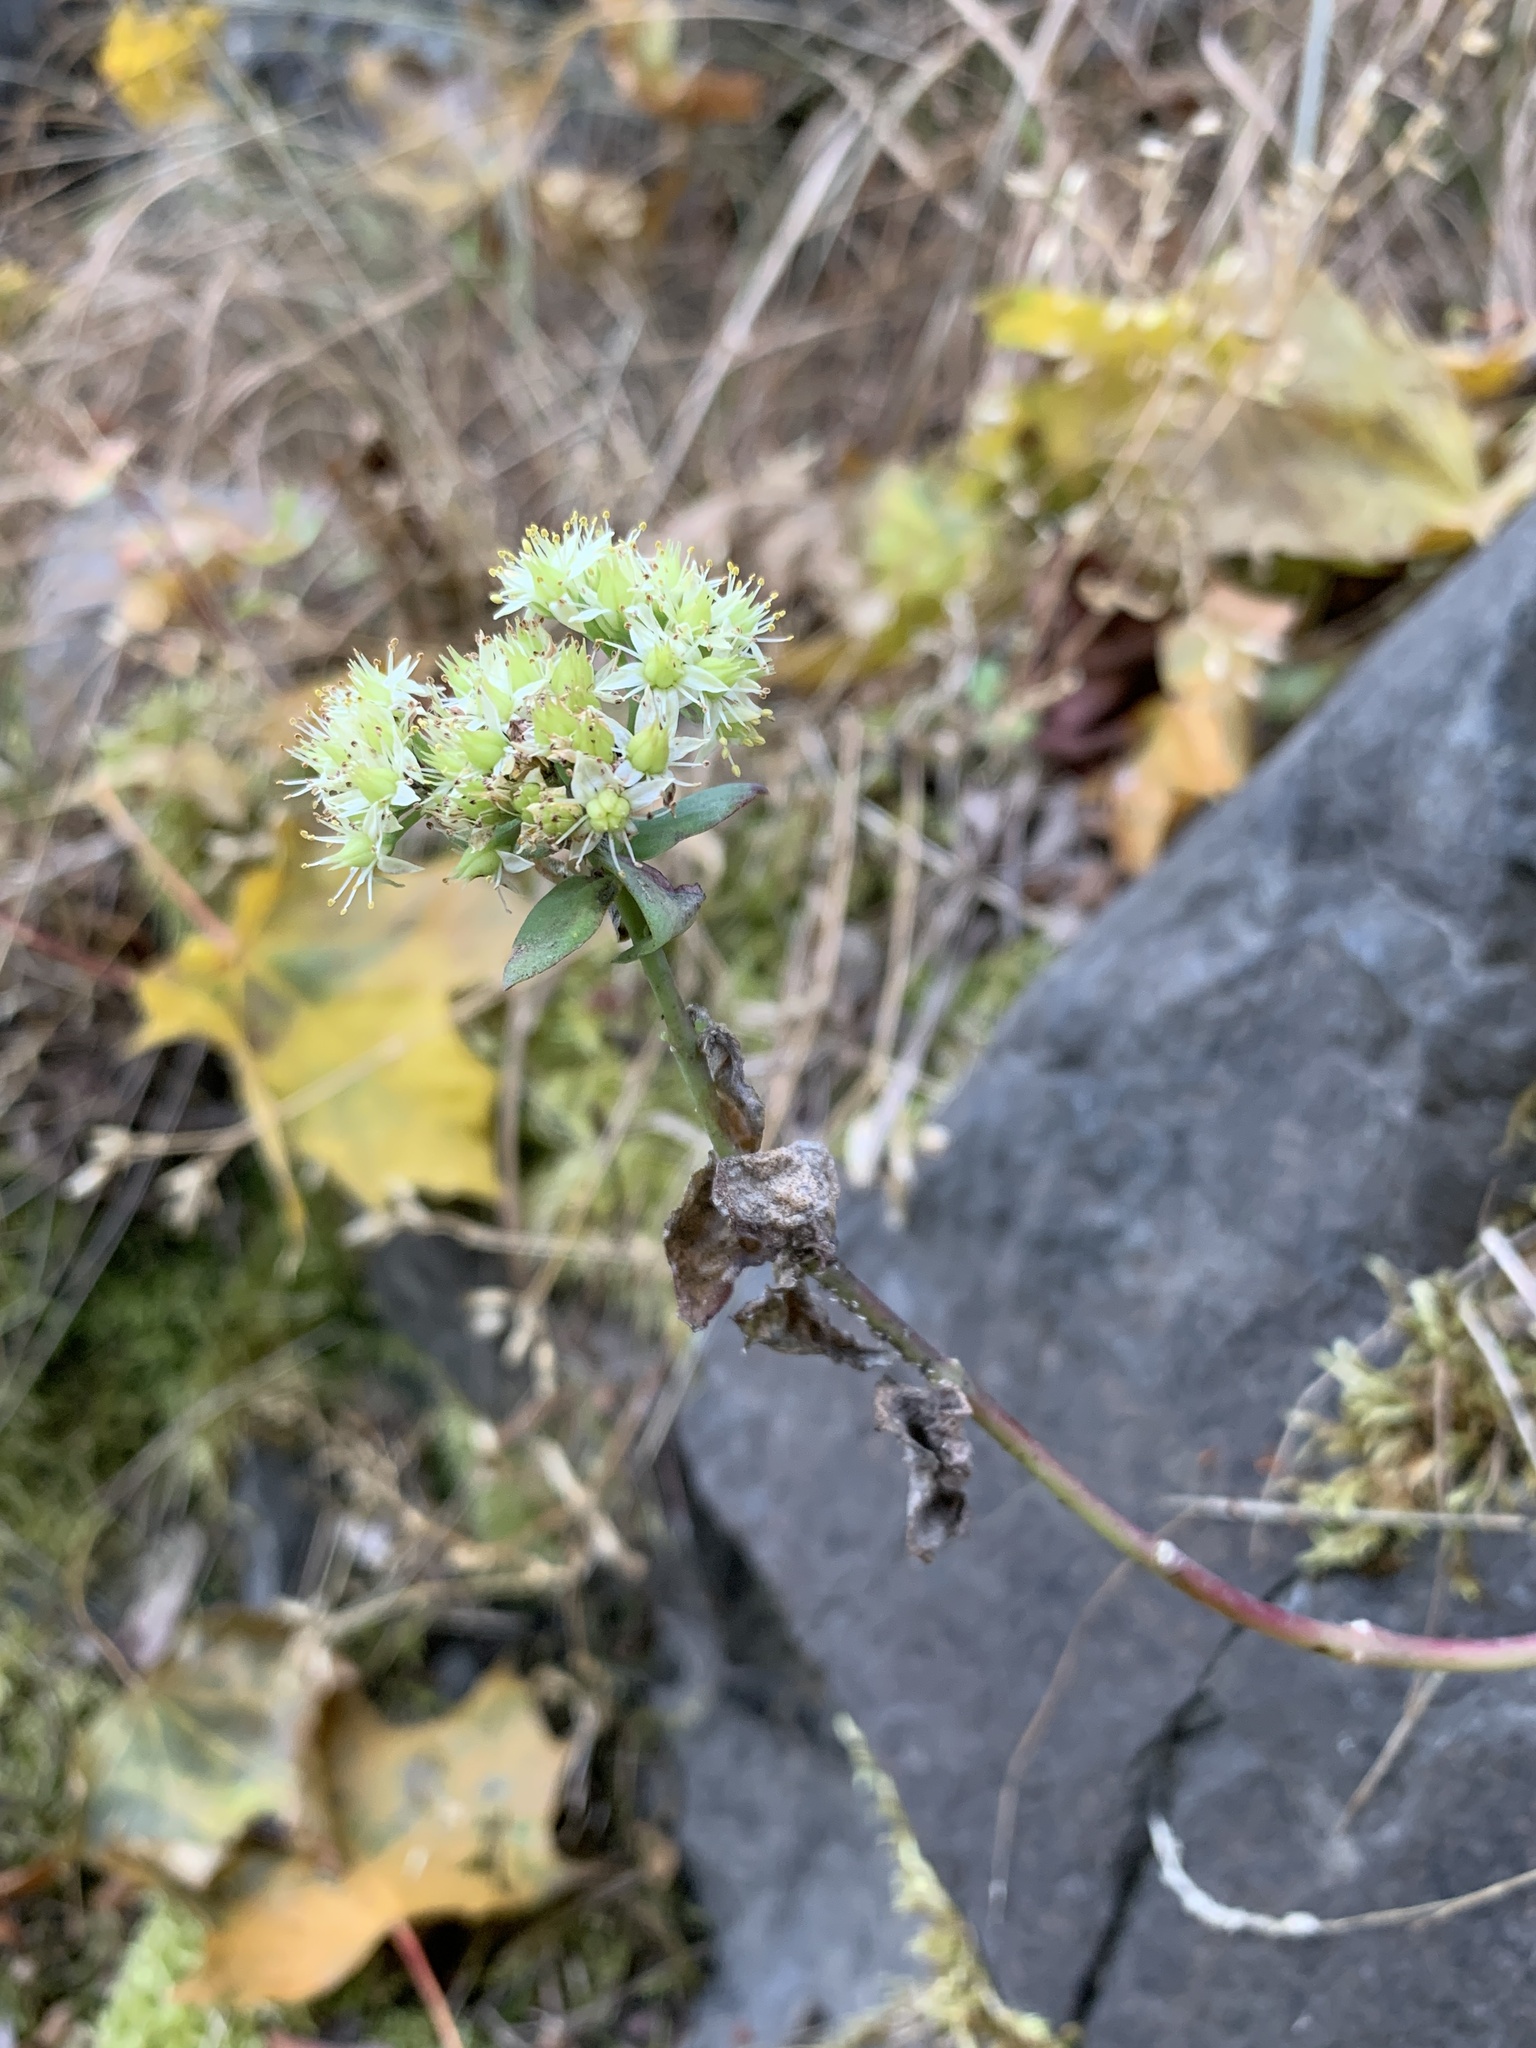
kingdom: Plantae
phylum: Tracheophyta
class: Magnoliopsida
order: Saxifragales
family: Crassulaceae
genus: Hylotelephium
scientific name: Hylotelephium maximum
